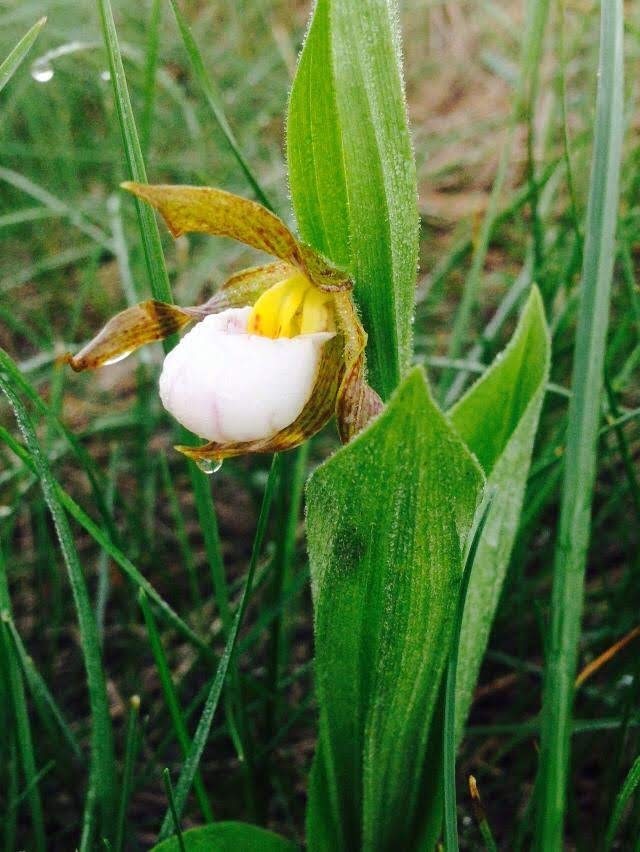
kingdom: Plantae
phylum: Tracheophyta
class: Liliopsida
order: Asparagales
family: Orchidaceae
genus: Cypripedium
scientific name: Cypripedium candidum
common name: White lady's-slipper
